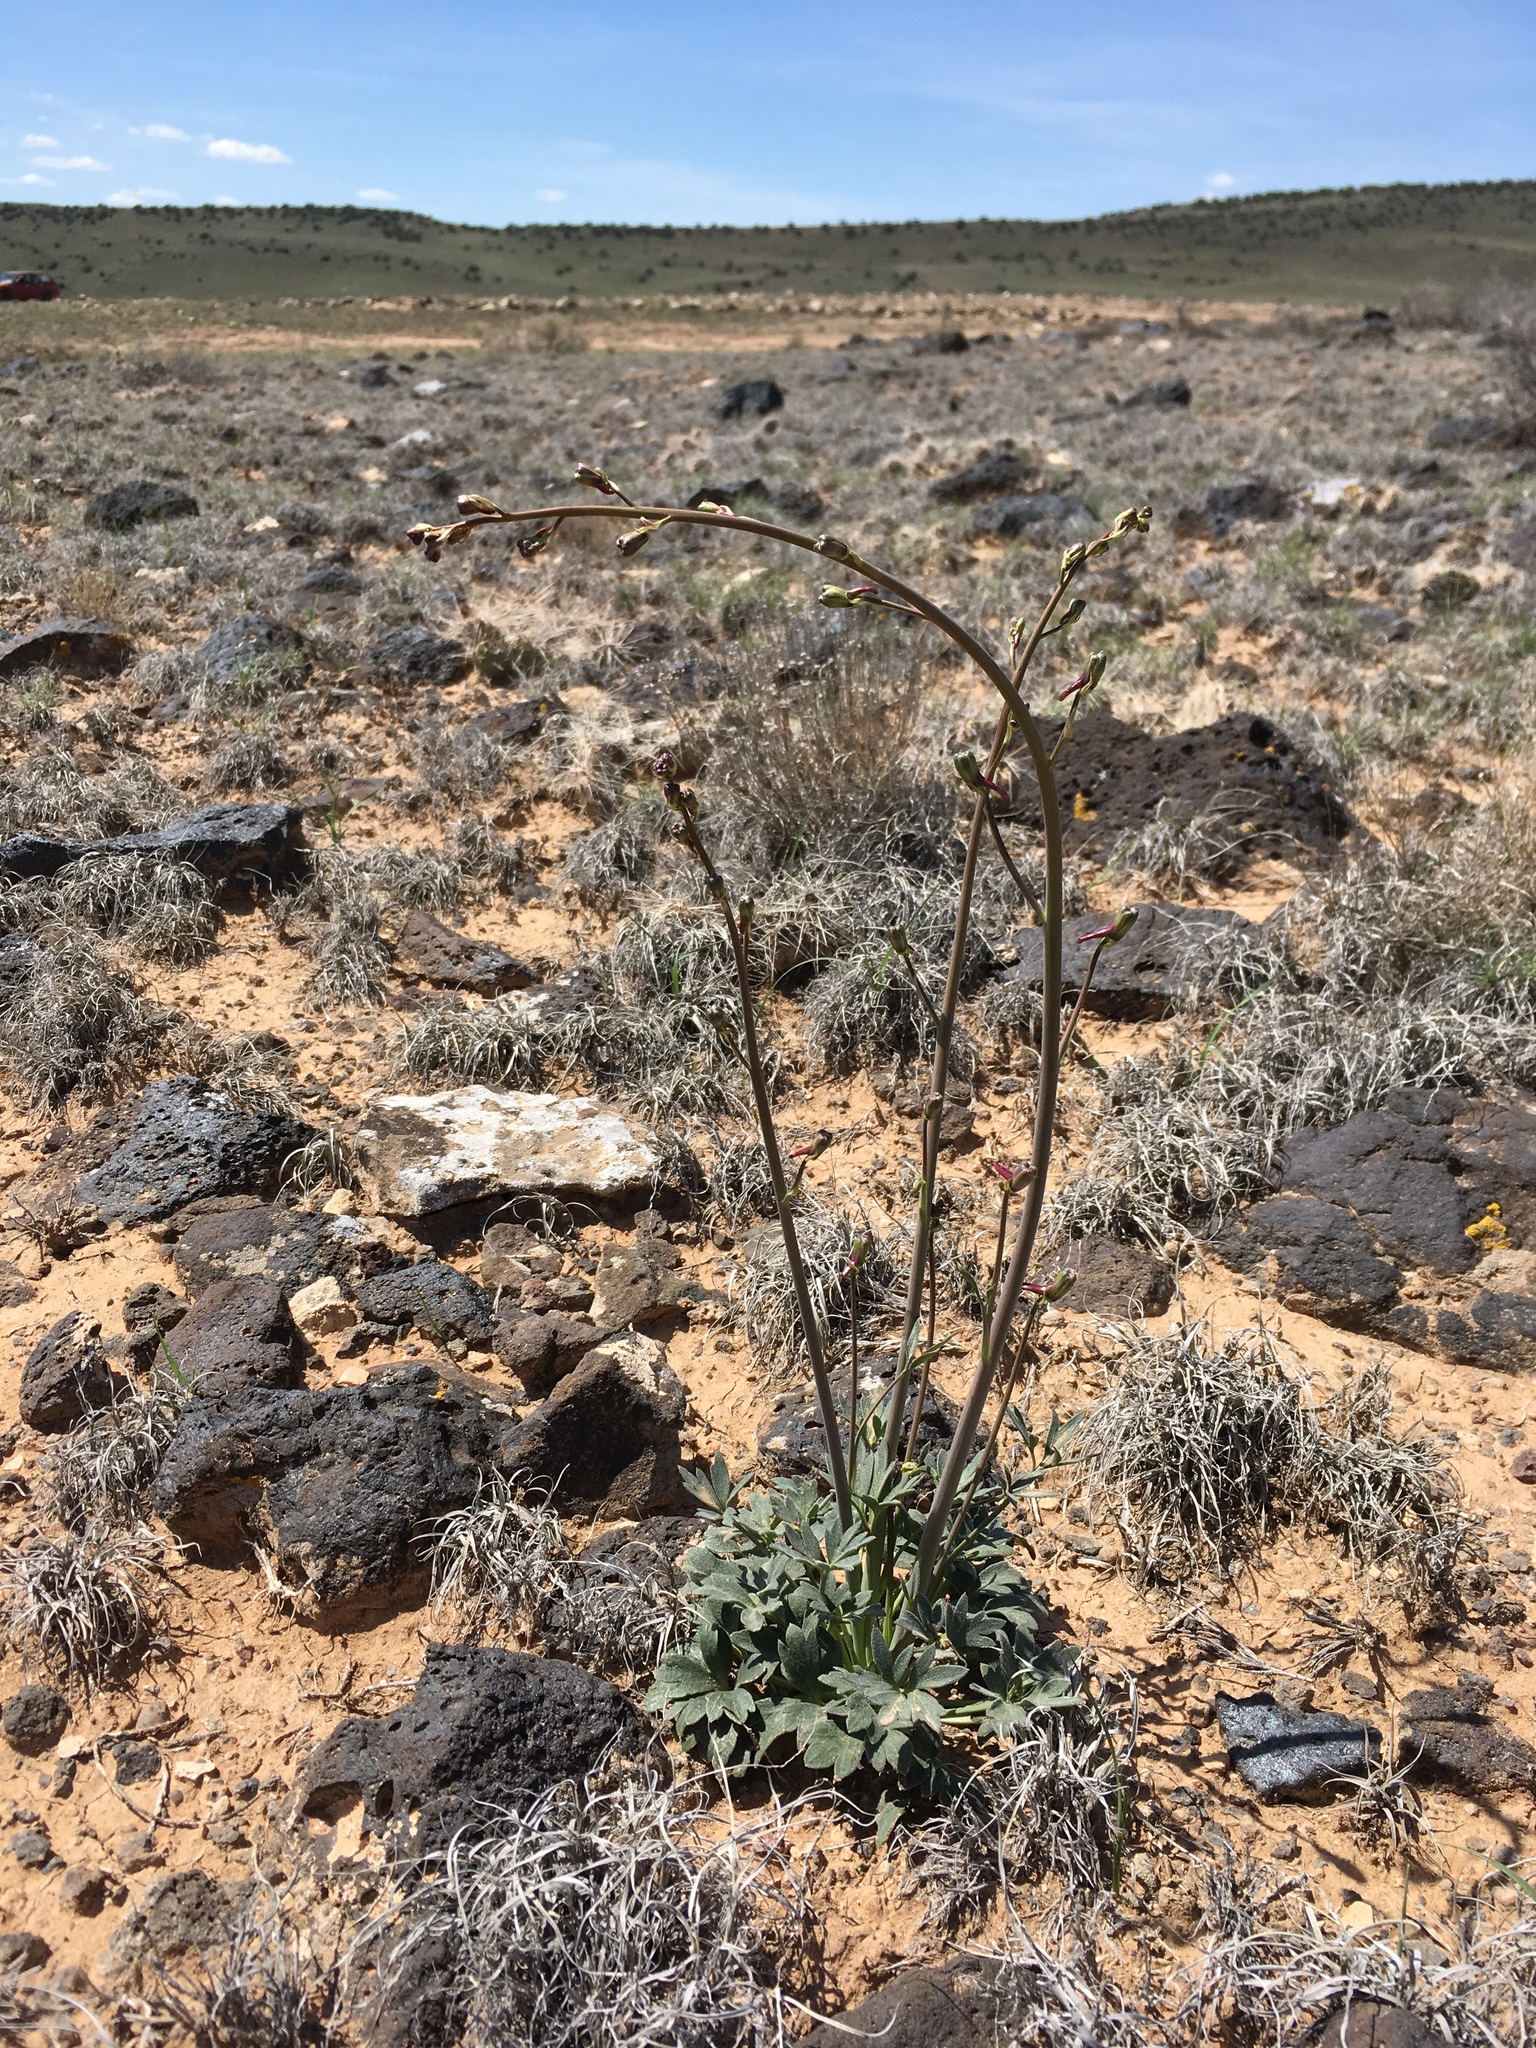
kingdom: Plantae
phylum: Tracheophyta
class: Magnoliopsida
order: Ranunculales
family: Ranunculaceae
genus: Delphinium
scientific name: Delphinium scaposum
